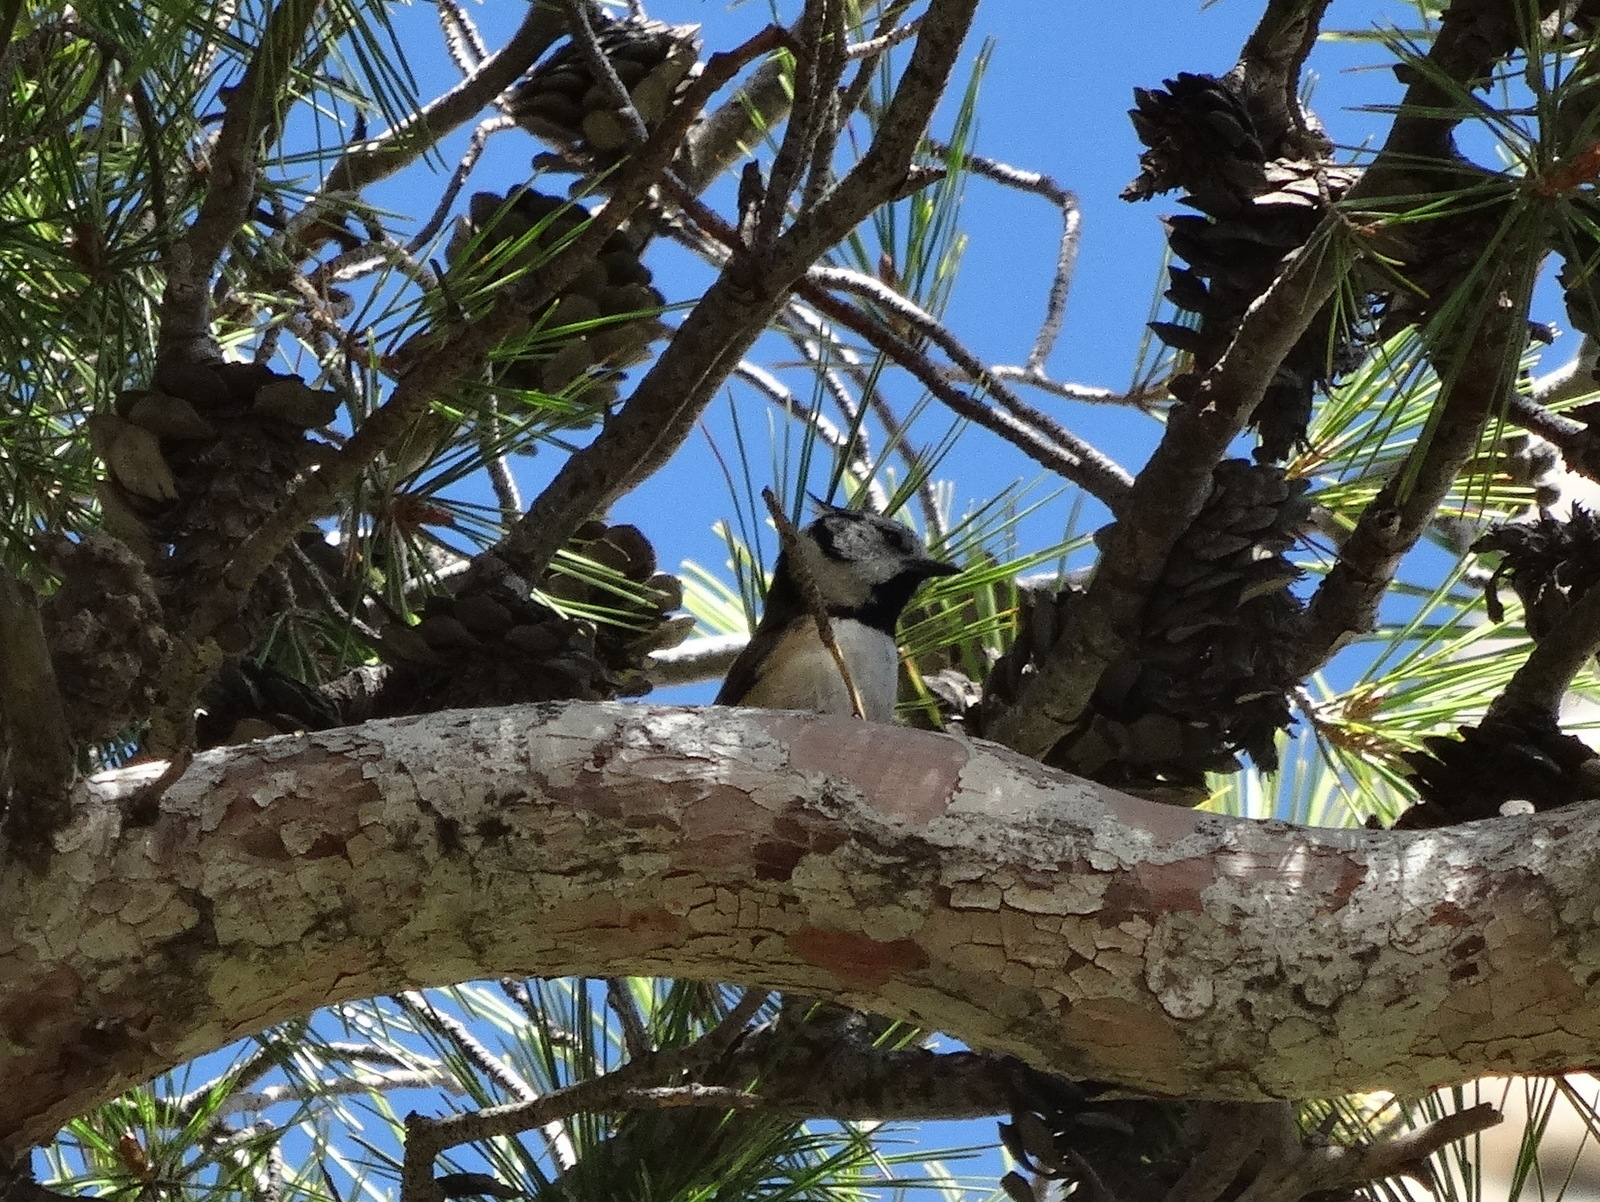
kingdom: Animalia
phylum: Chordata
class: Aves
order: Passeriformes
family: Paridae
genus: Lophophanes
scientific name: Lophophanes cristatus
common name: European crested tit
